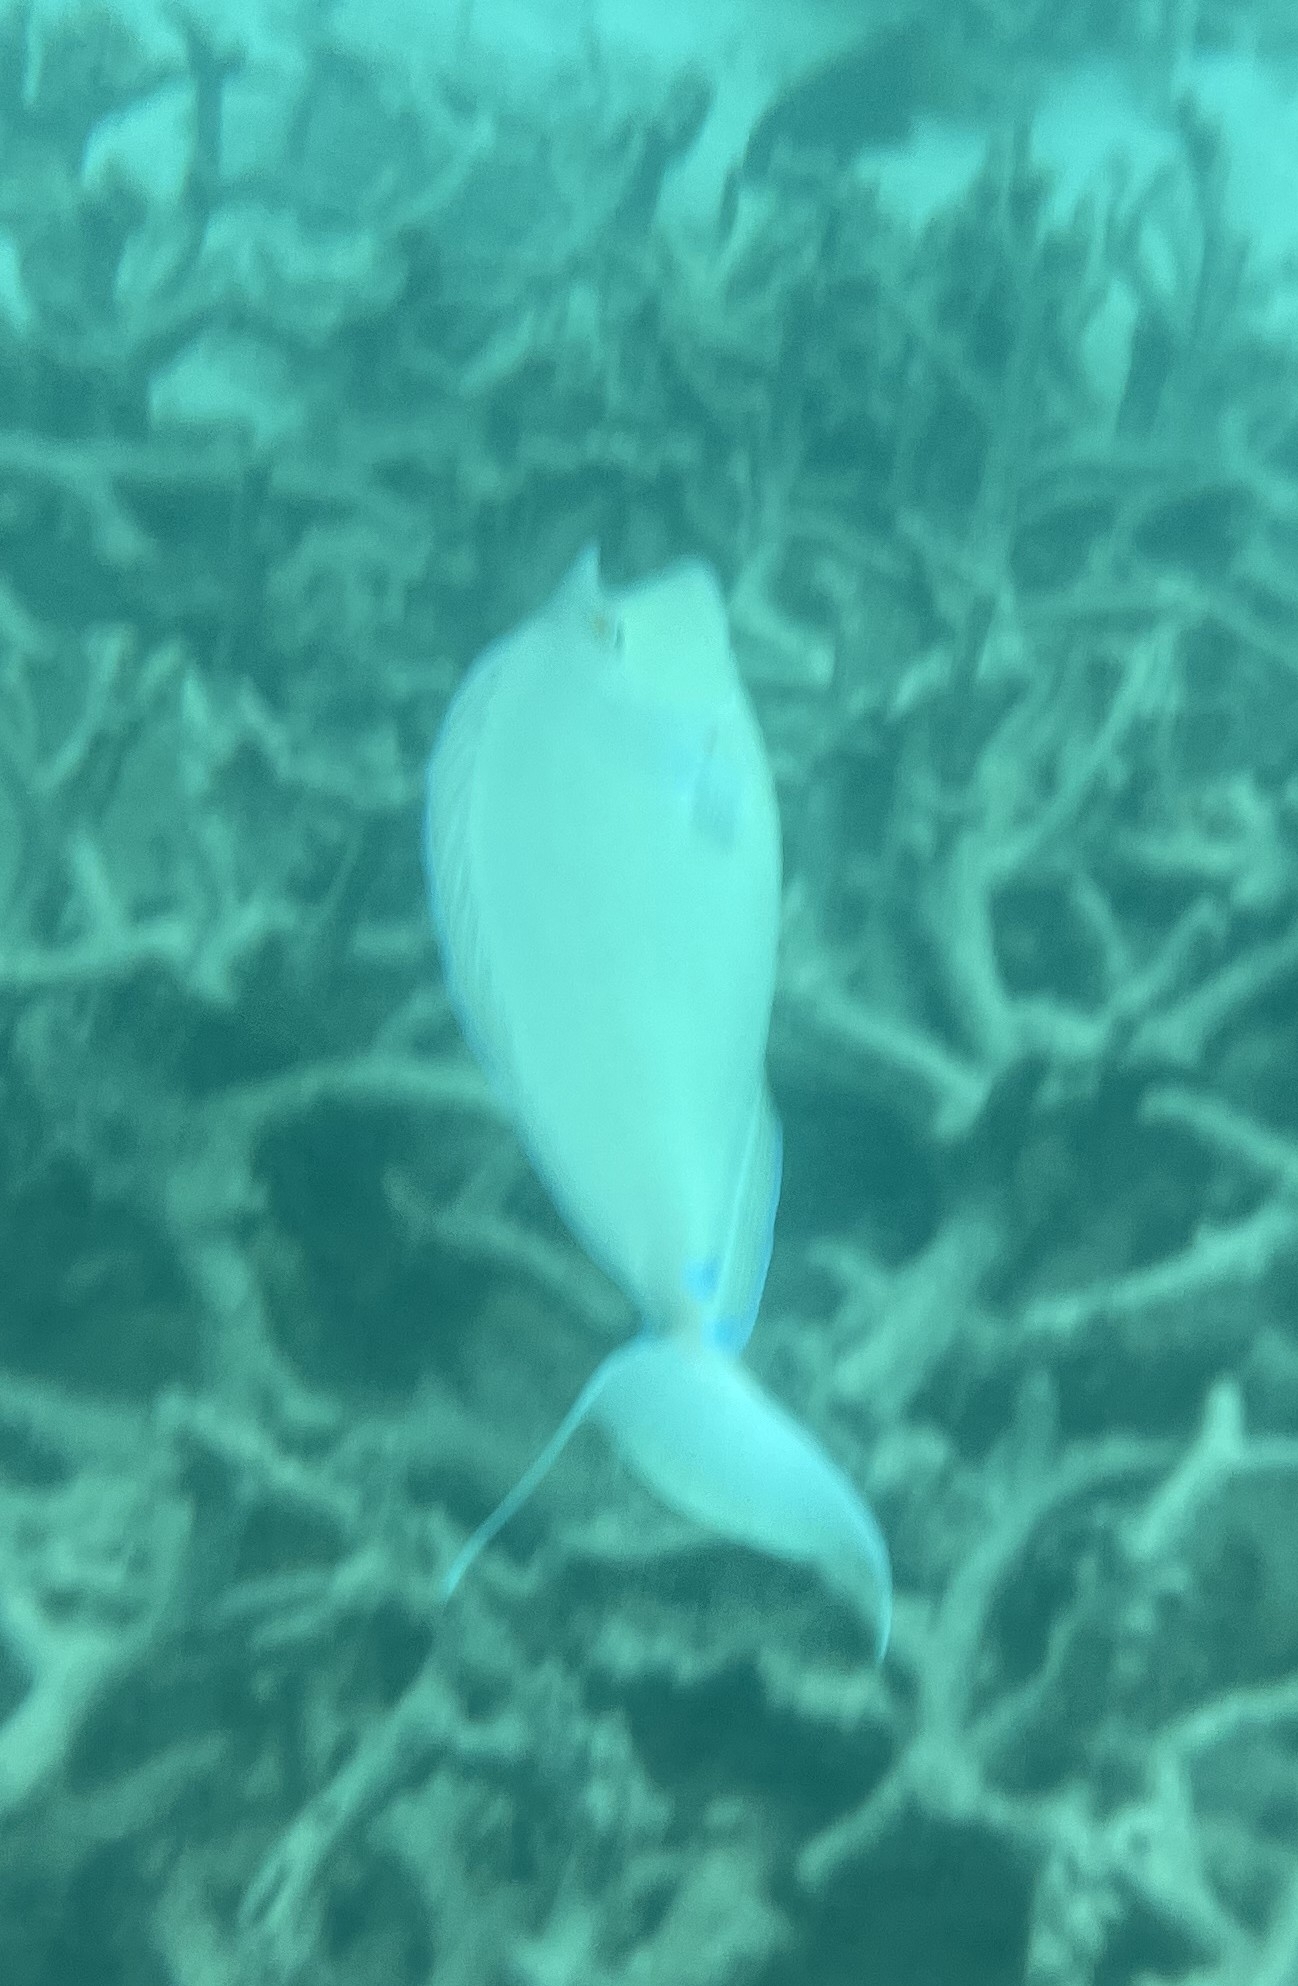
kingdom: Animalia
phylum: Chordata
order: Perciformes
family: Acanthuridae
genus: Naso
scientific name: Naso unicornis
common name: Bluespine unicornfish
